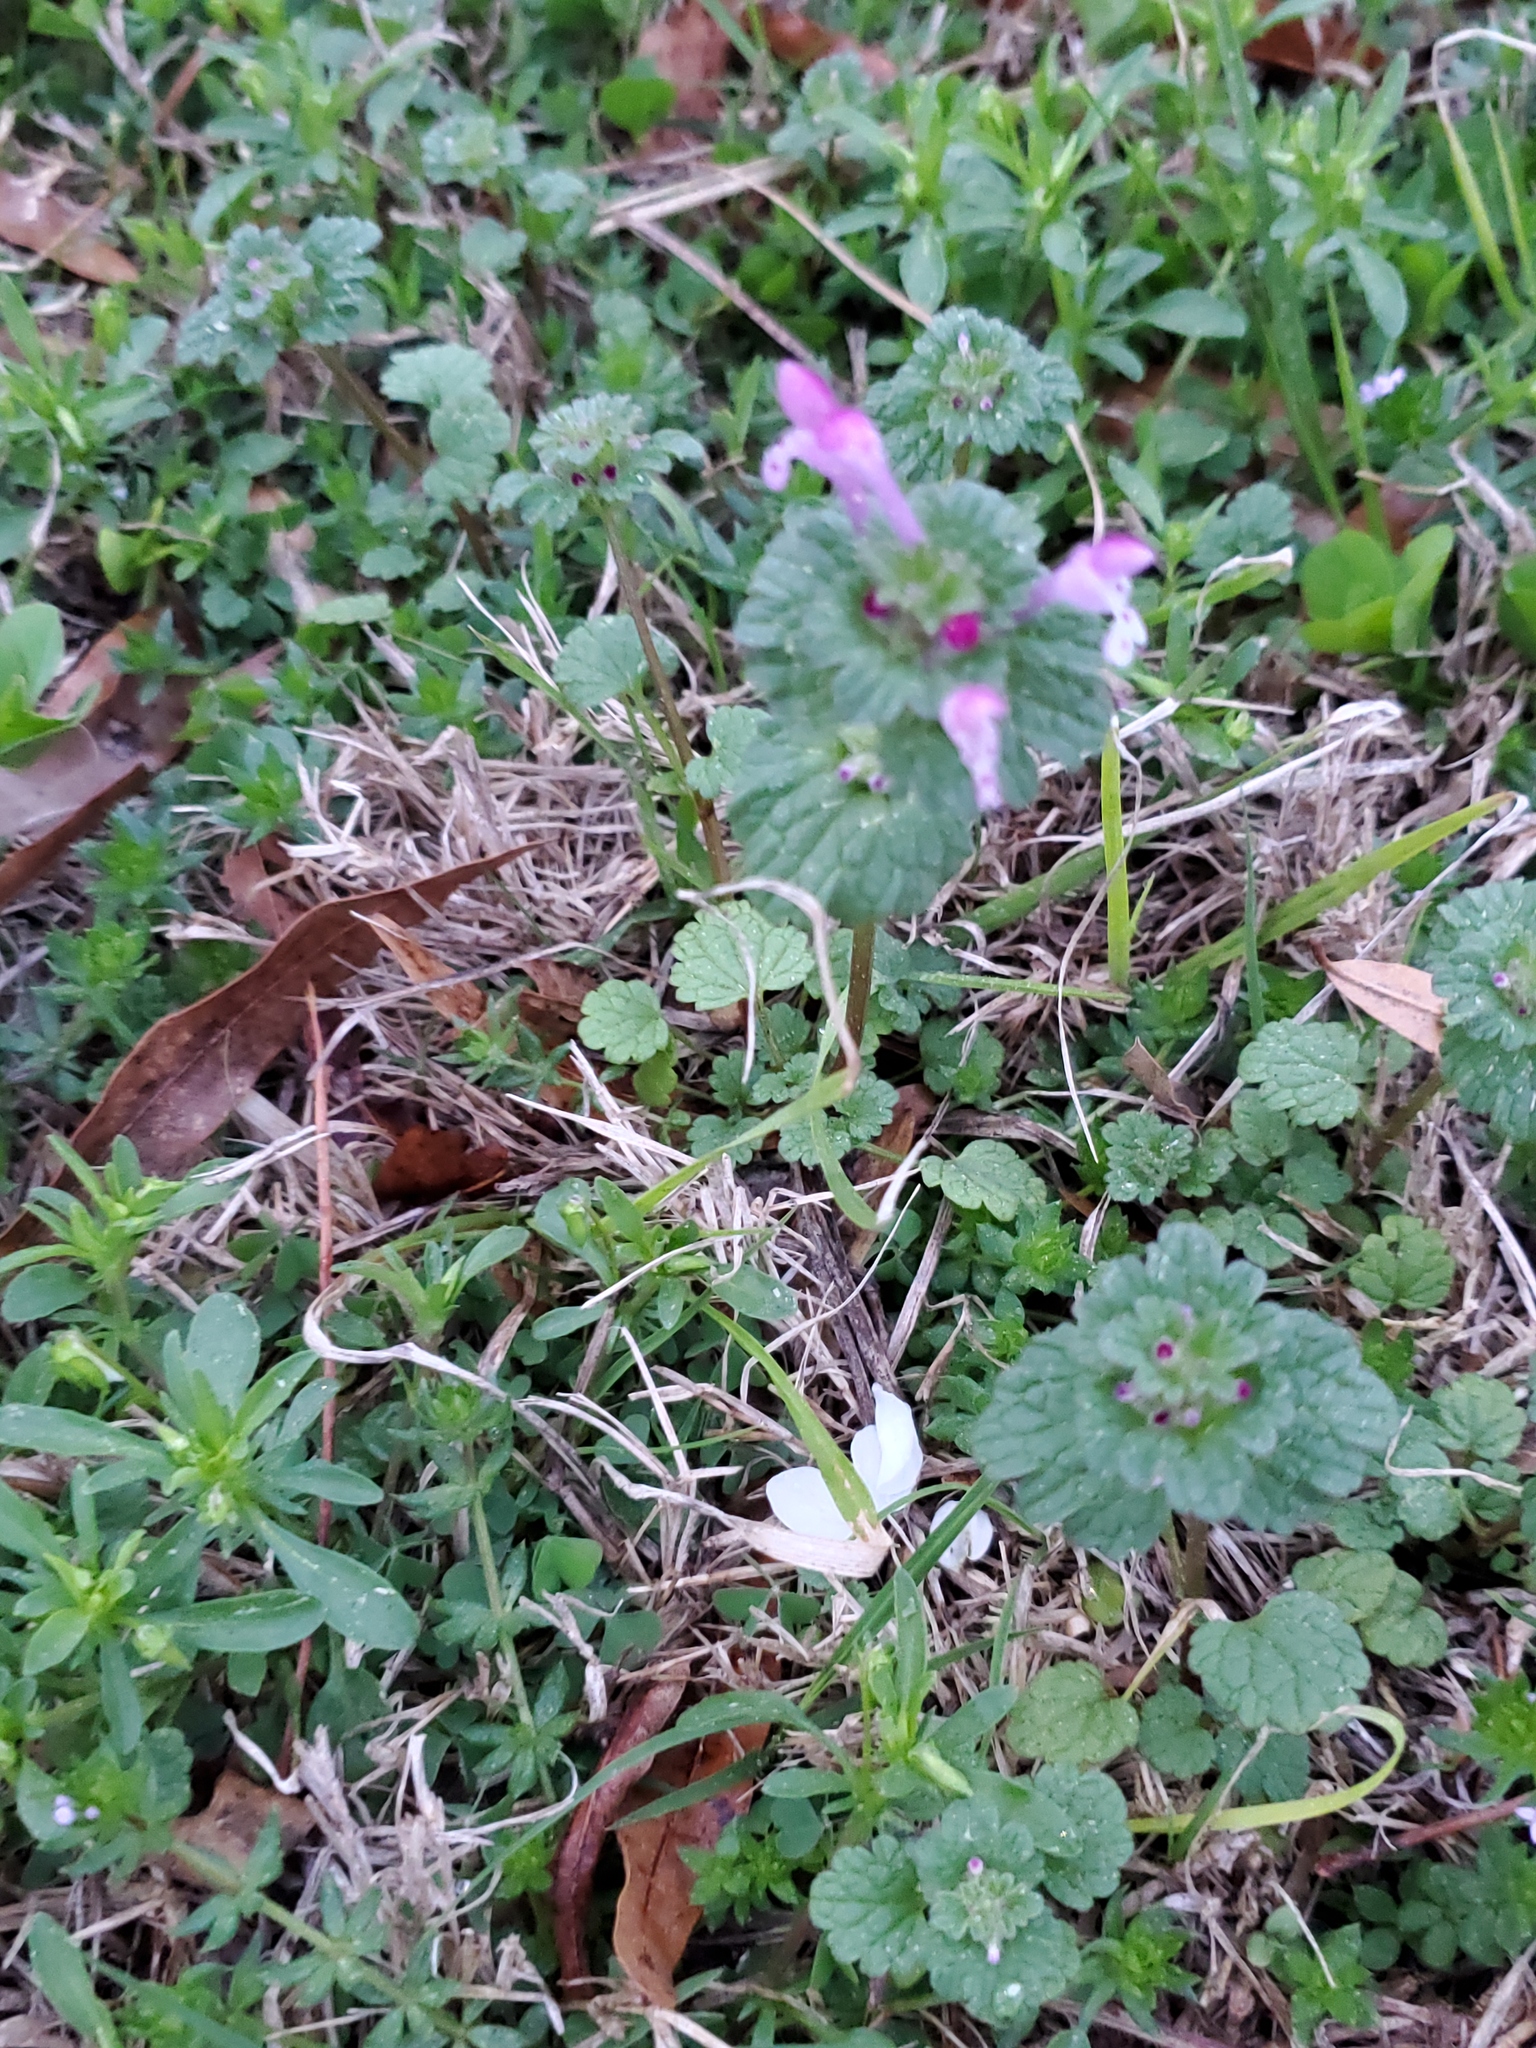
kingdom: Plantae
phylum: Tracheophyta
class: Magnoliopsida
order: Lamiales
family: Lamiaceae
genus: Lamium
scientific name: Lamium amplexicaule
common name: Henbit dead-nettle
